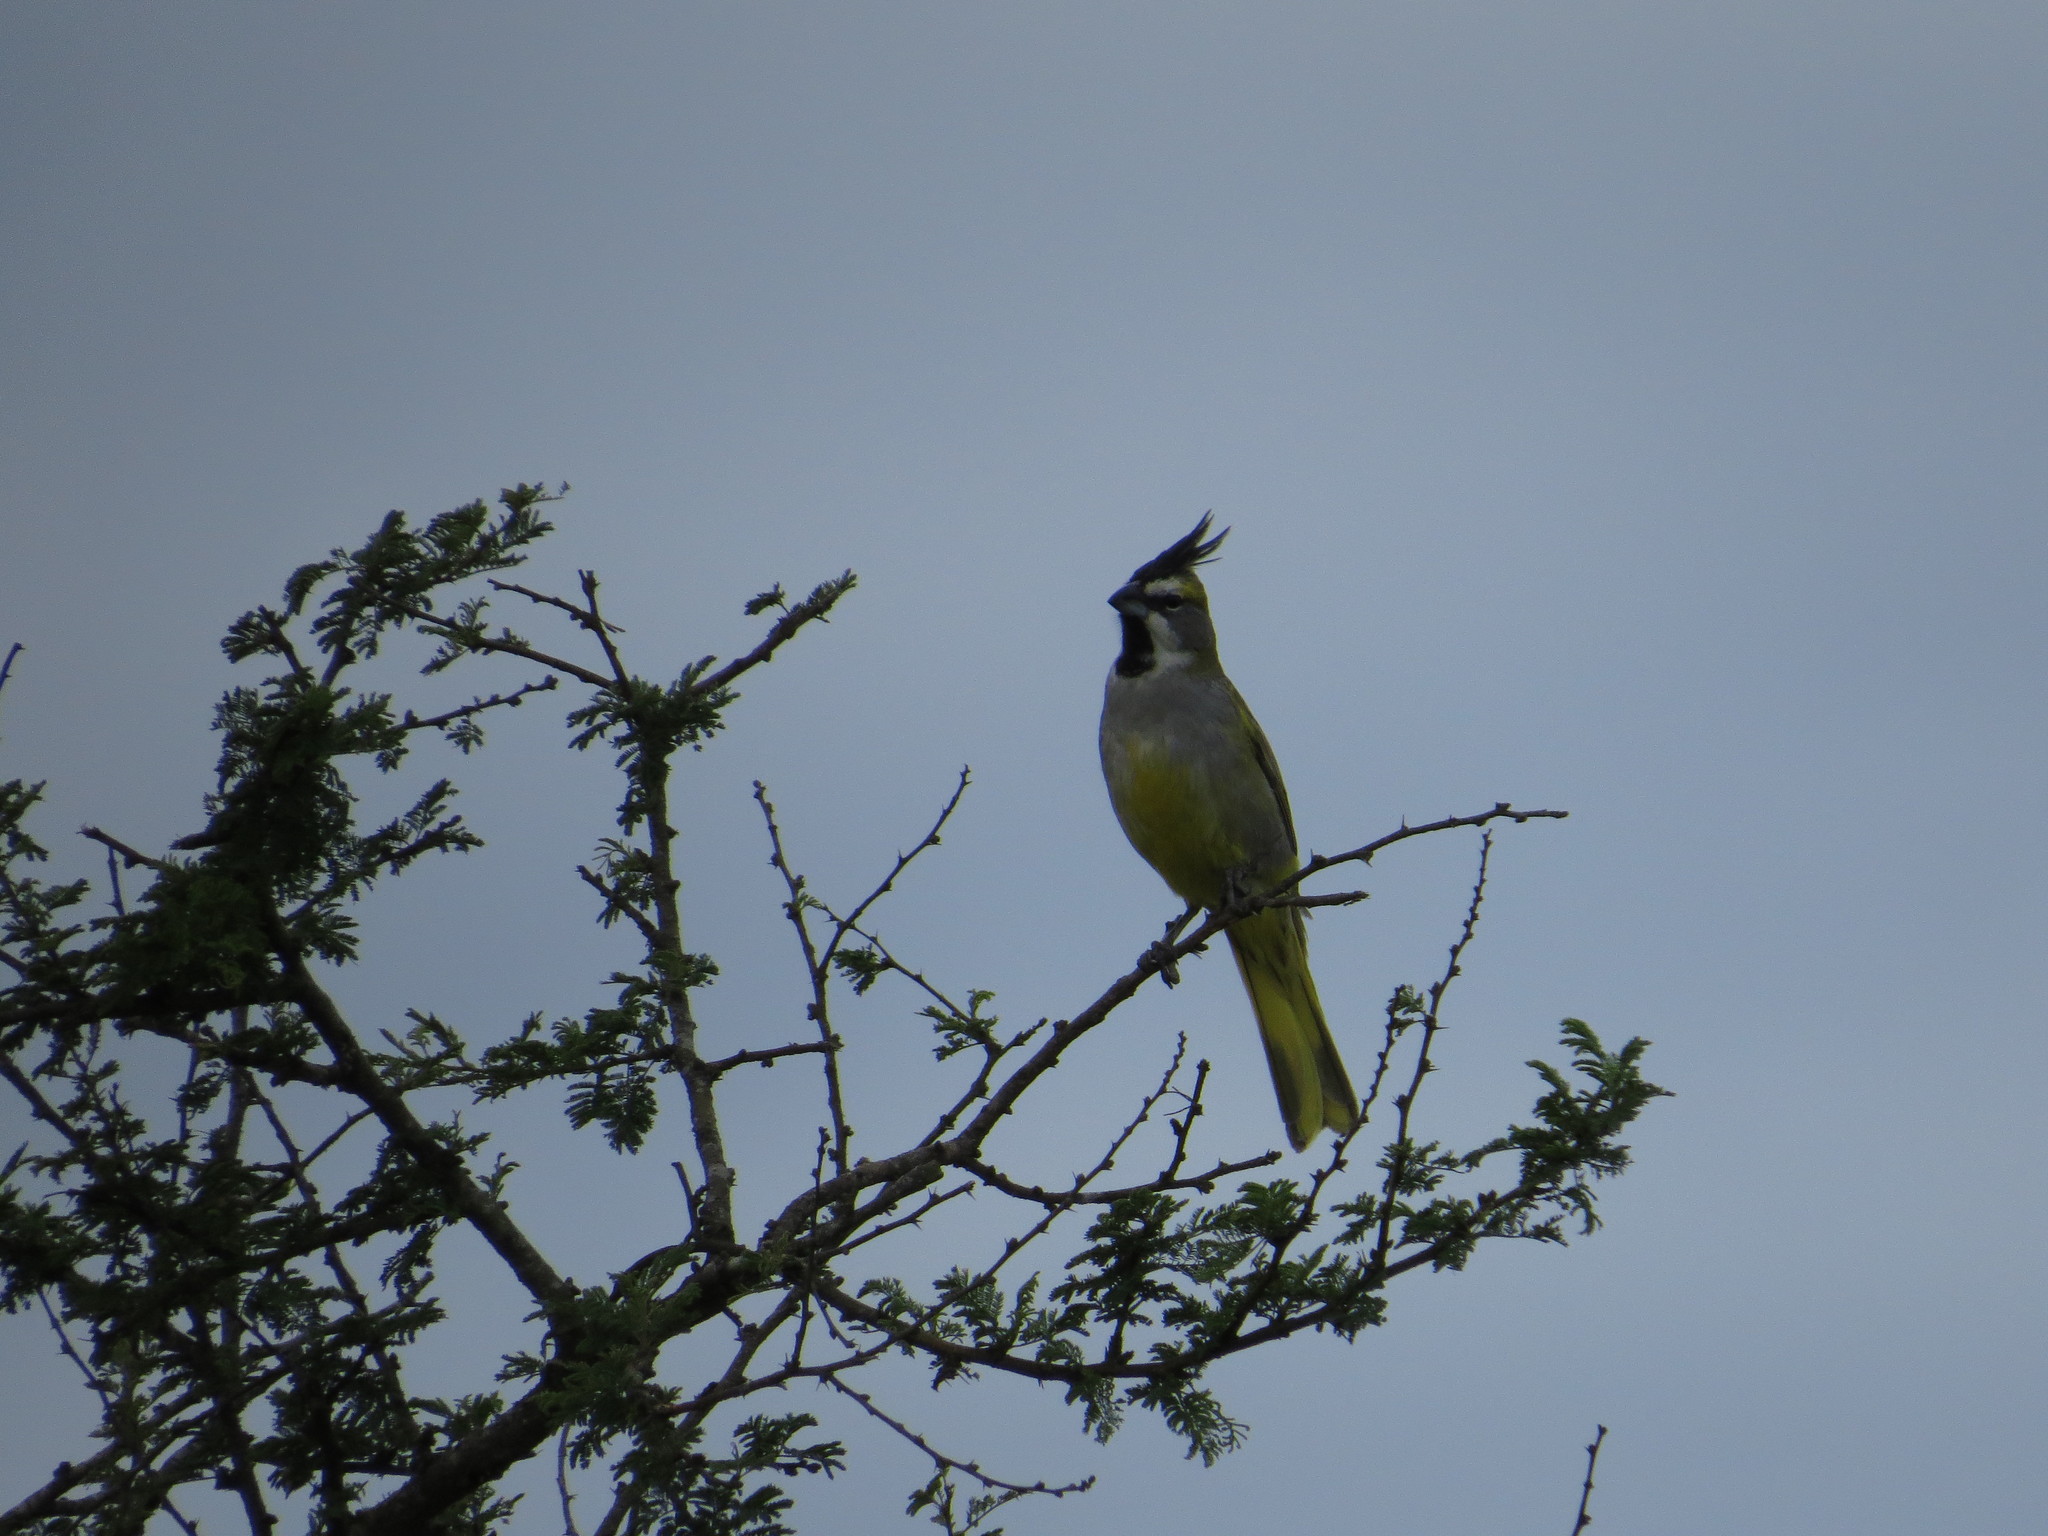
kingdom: Animalia
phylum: Chordata
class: Aves
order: Passeriformes
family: Thraupidae
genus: Gubernatrix
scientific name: Gubernatrix cristata
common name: Yellow cardinal
